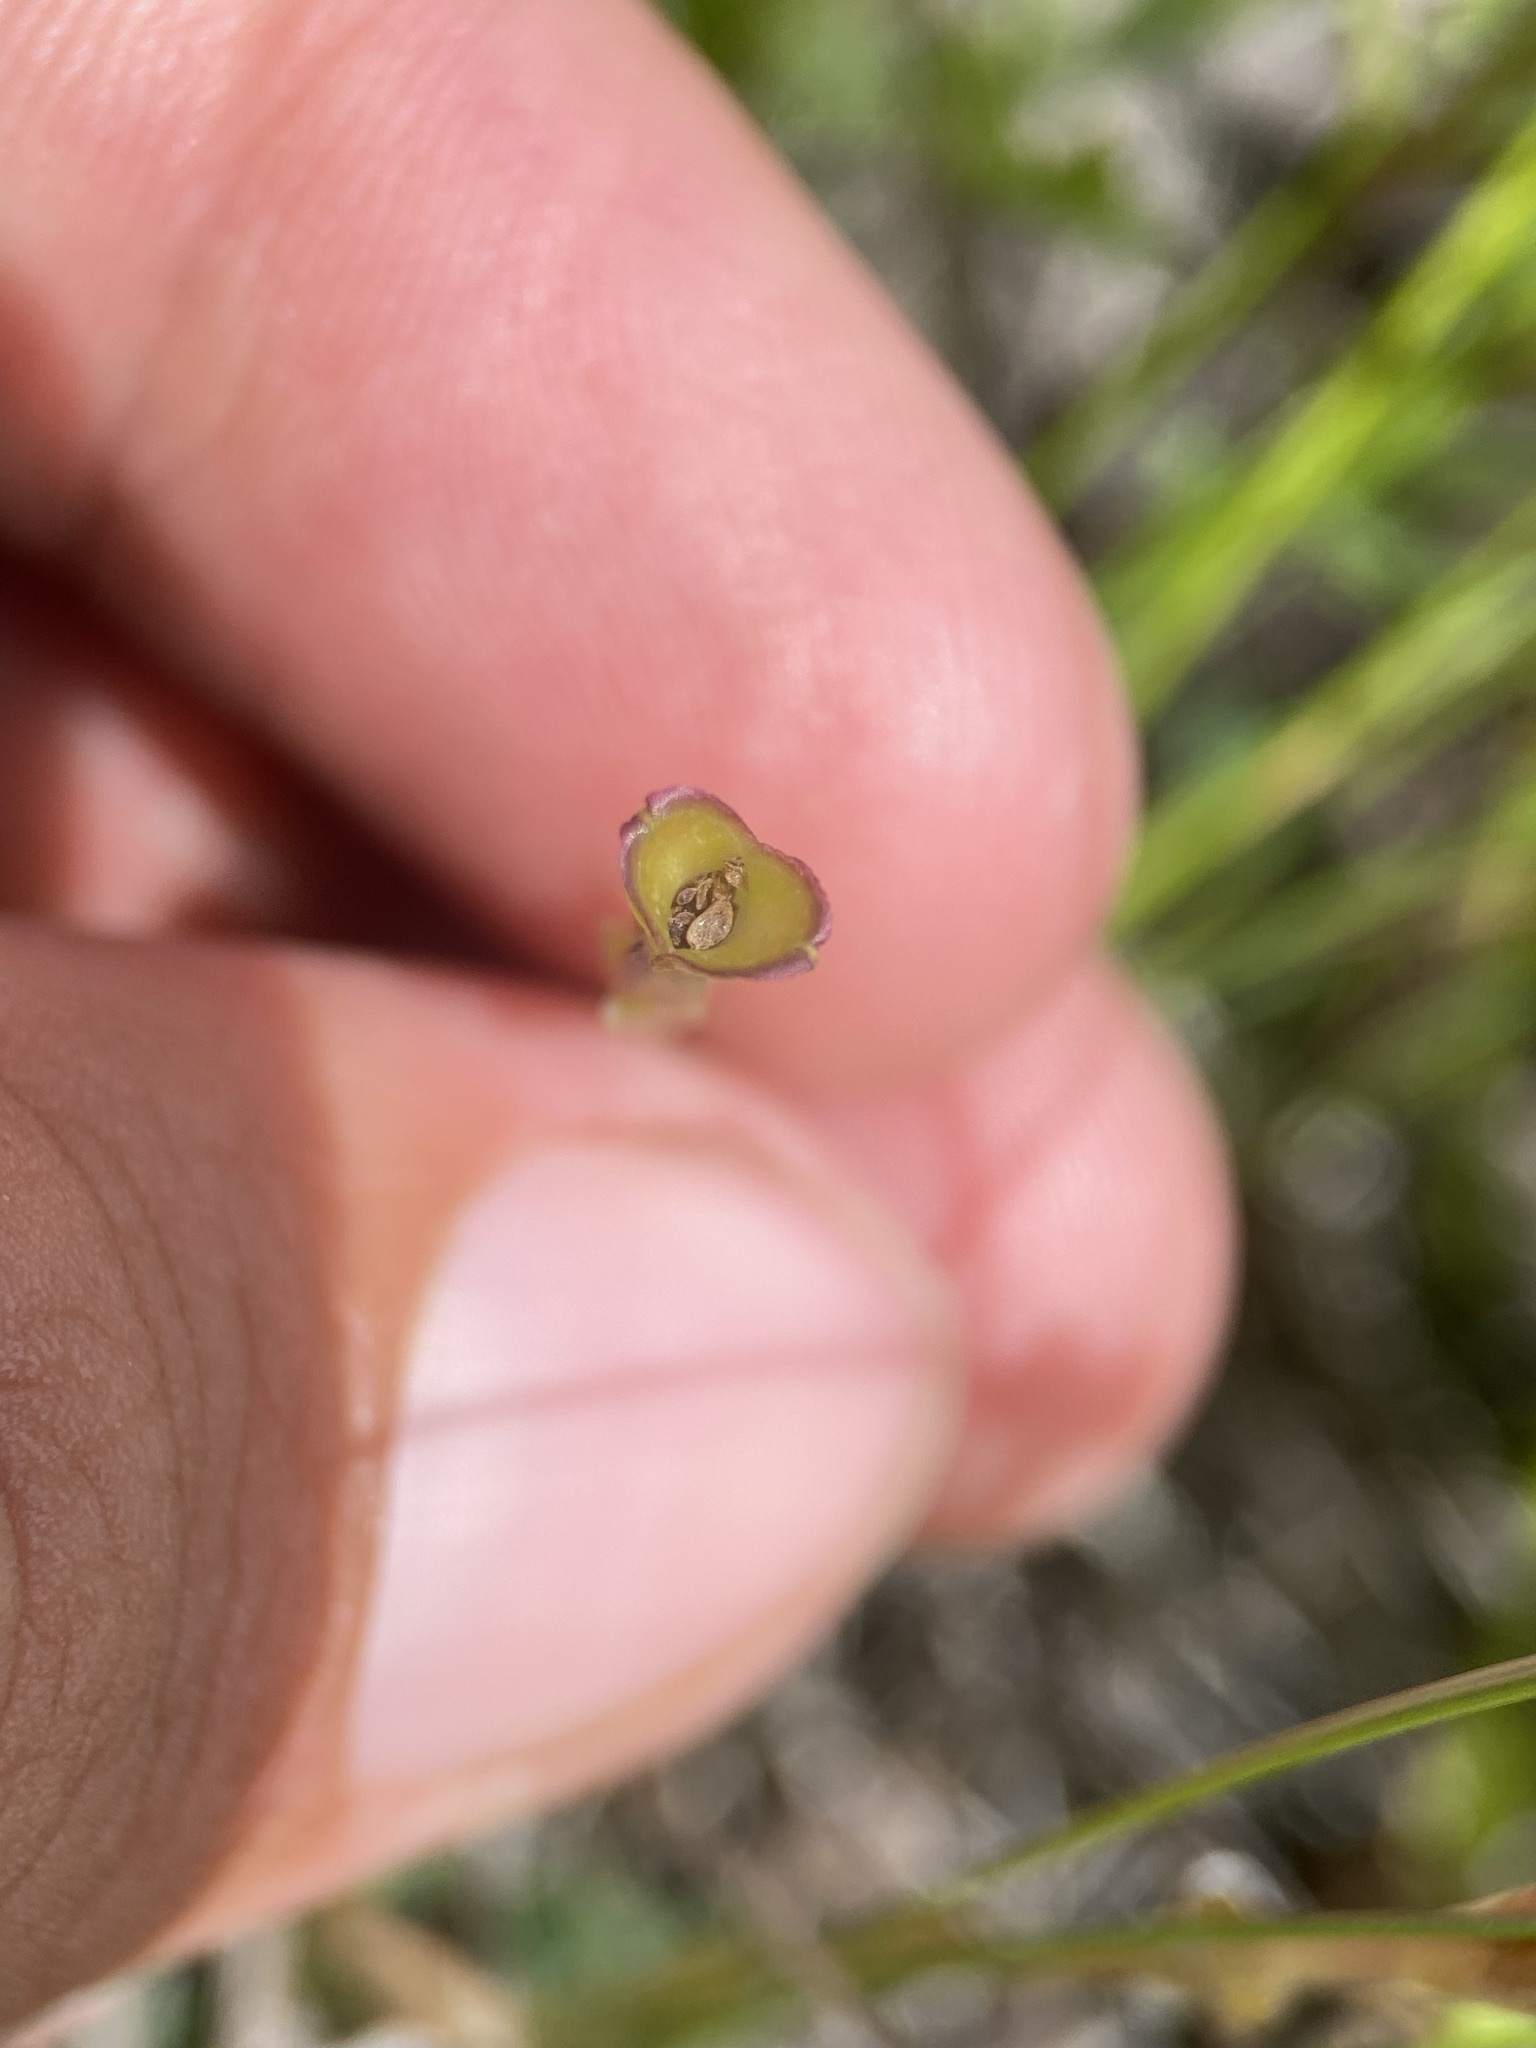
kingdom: Plantae
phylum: Tracheophyta
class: Magnoliopsida
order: Gentianales
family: Gentianaceae
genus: Gentiana
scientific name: Gentiana fremontii
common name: Fremont's gentian
